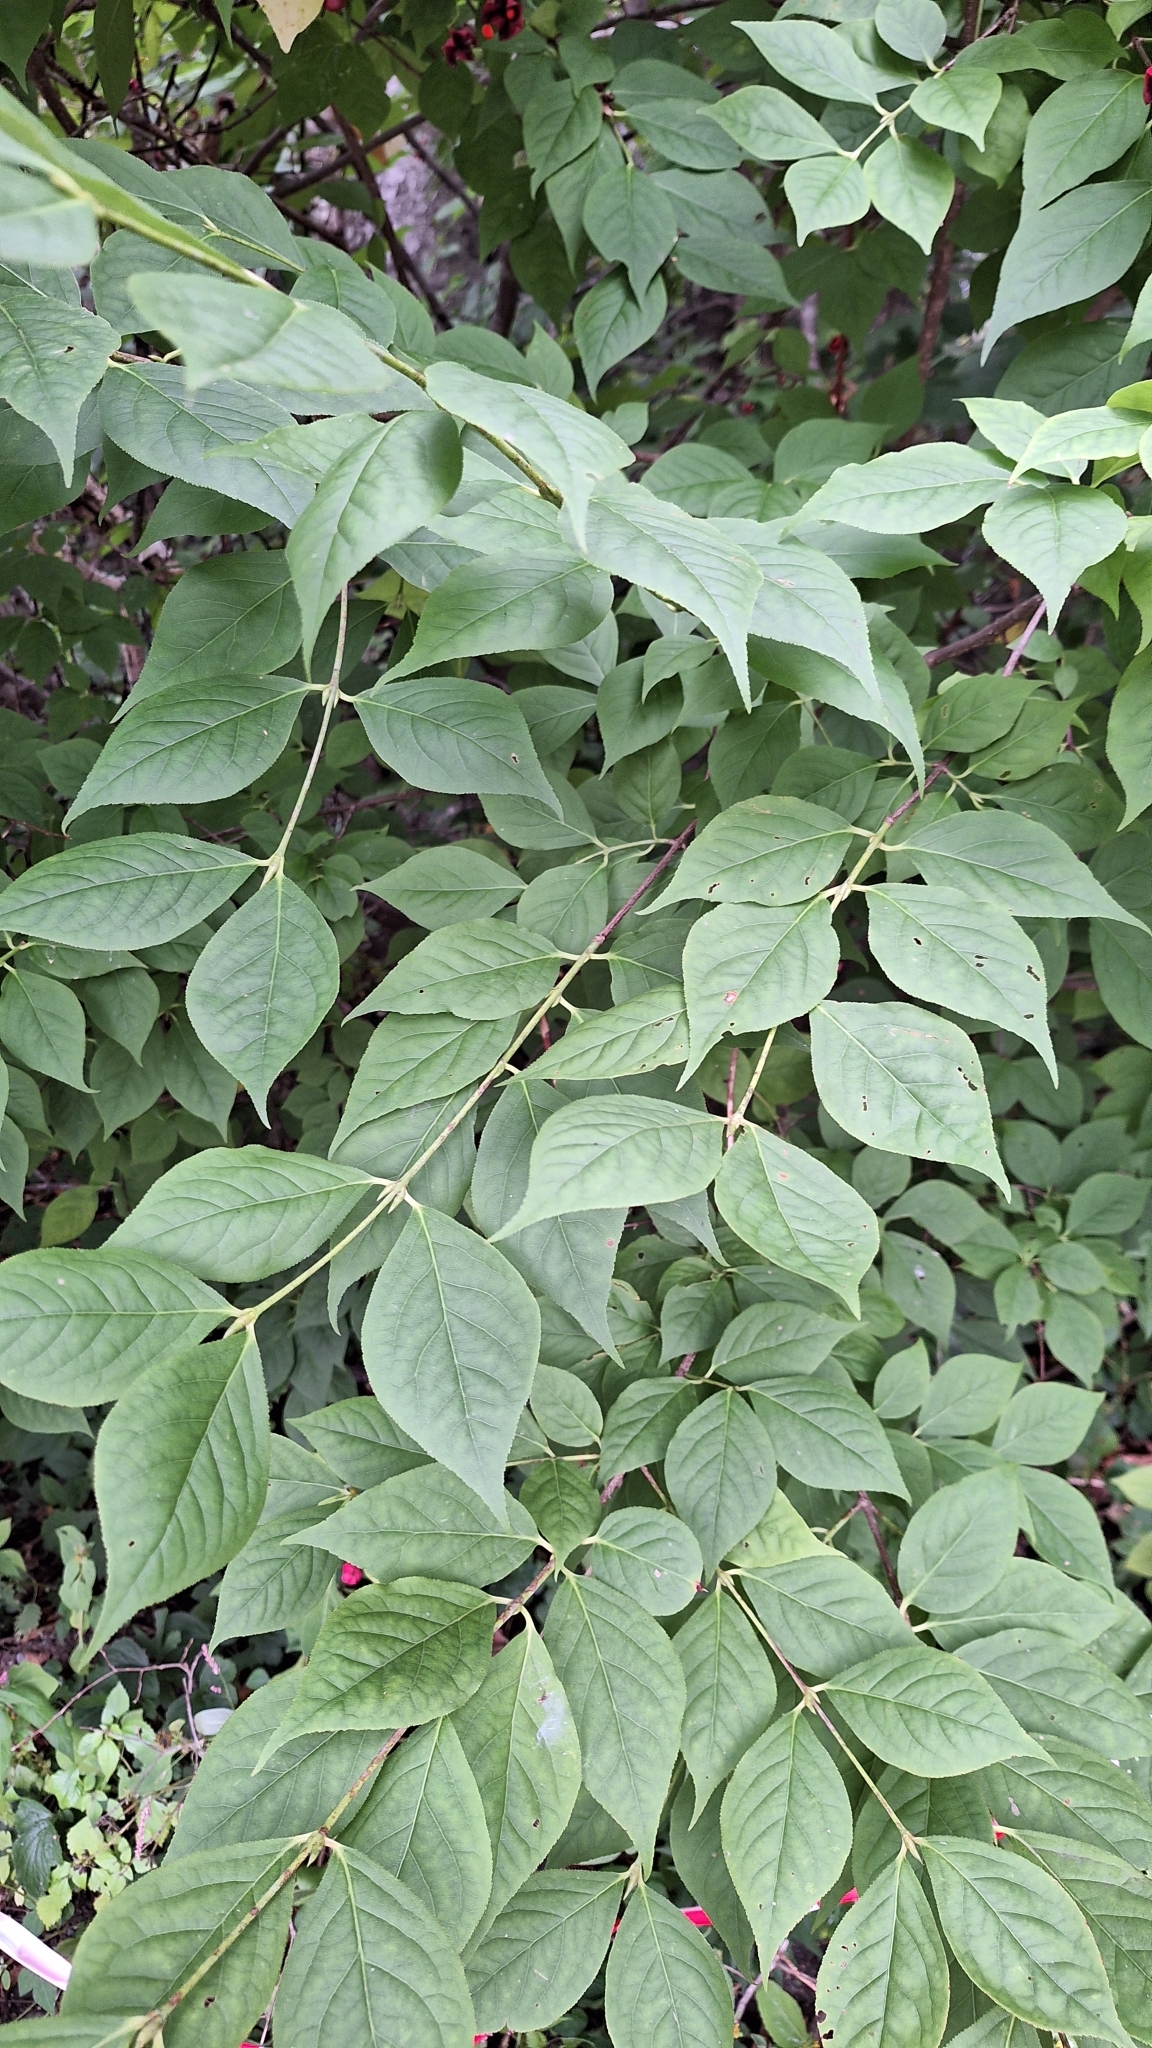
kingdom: Plantae
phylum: Tracheophyta
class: Magnoliopsida
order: Celastrales
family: Celastraceae
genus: Euonymus
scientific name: Euonymus sachalinensis
